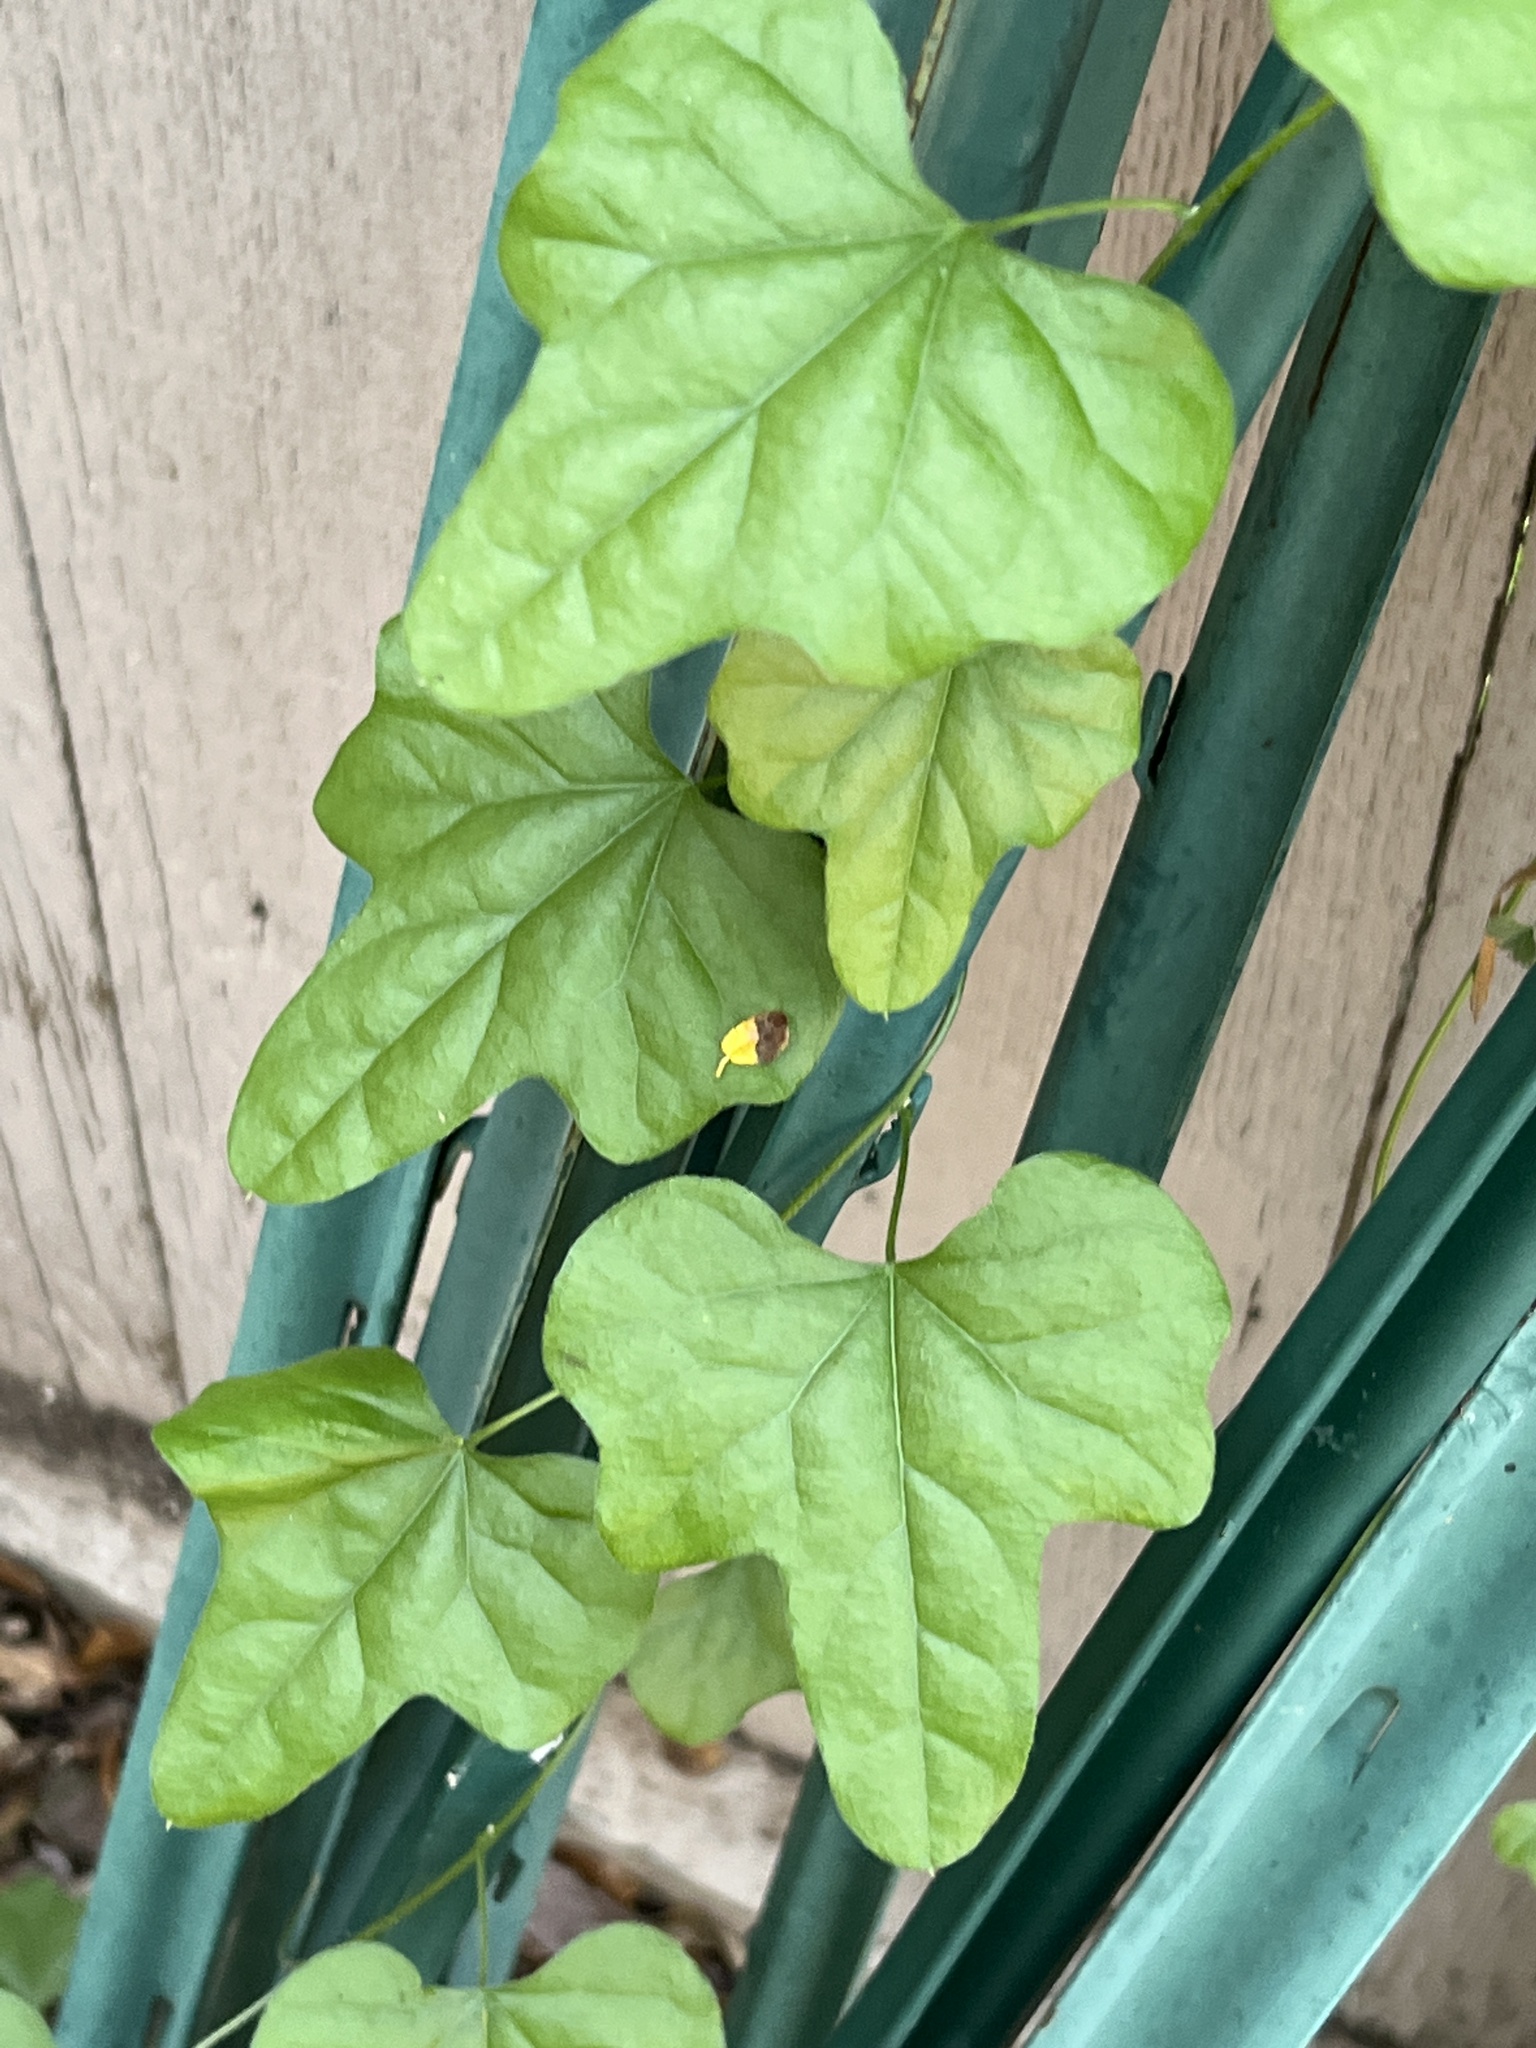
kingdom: Plantae
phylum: Tracheophyta
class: Magnoliopsida
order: Ranunculales
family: Menispermaceae
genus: Cocculus
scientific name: Cocculus carolinus
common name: Carolina moonseed
